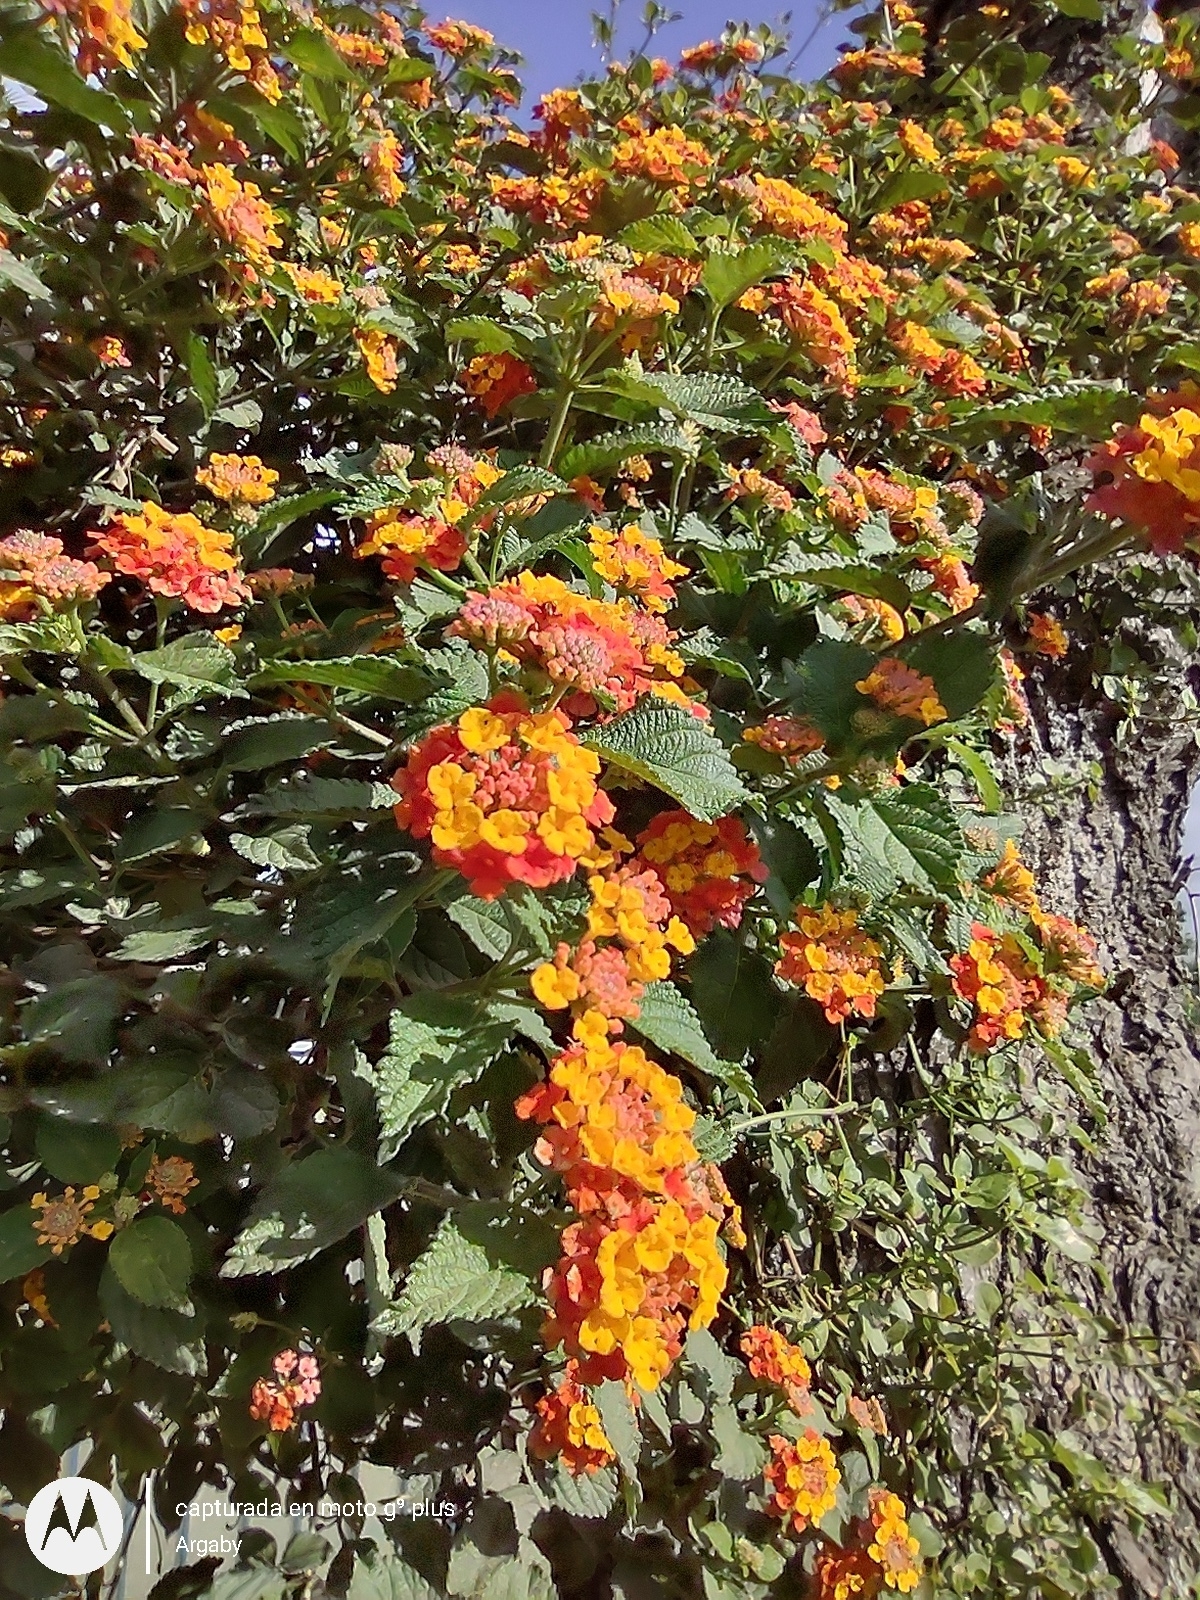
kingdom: Plantae
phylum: Tracheophyta
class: Magnoliopsida
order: Lamiales
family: Verbenaceae
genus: Lantana
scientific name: Lantana camara
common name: Lantana
